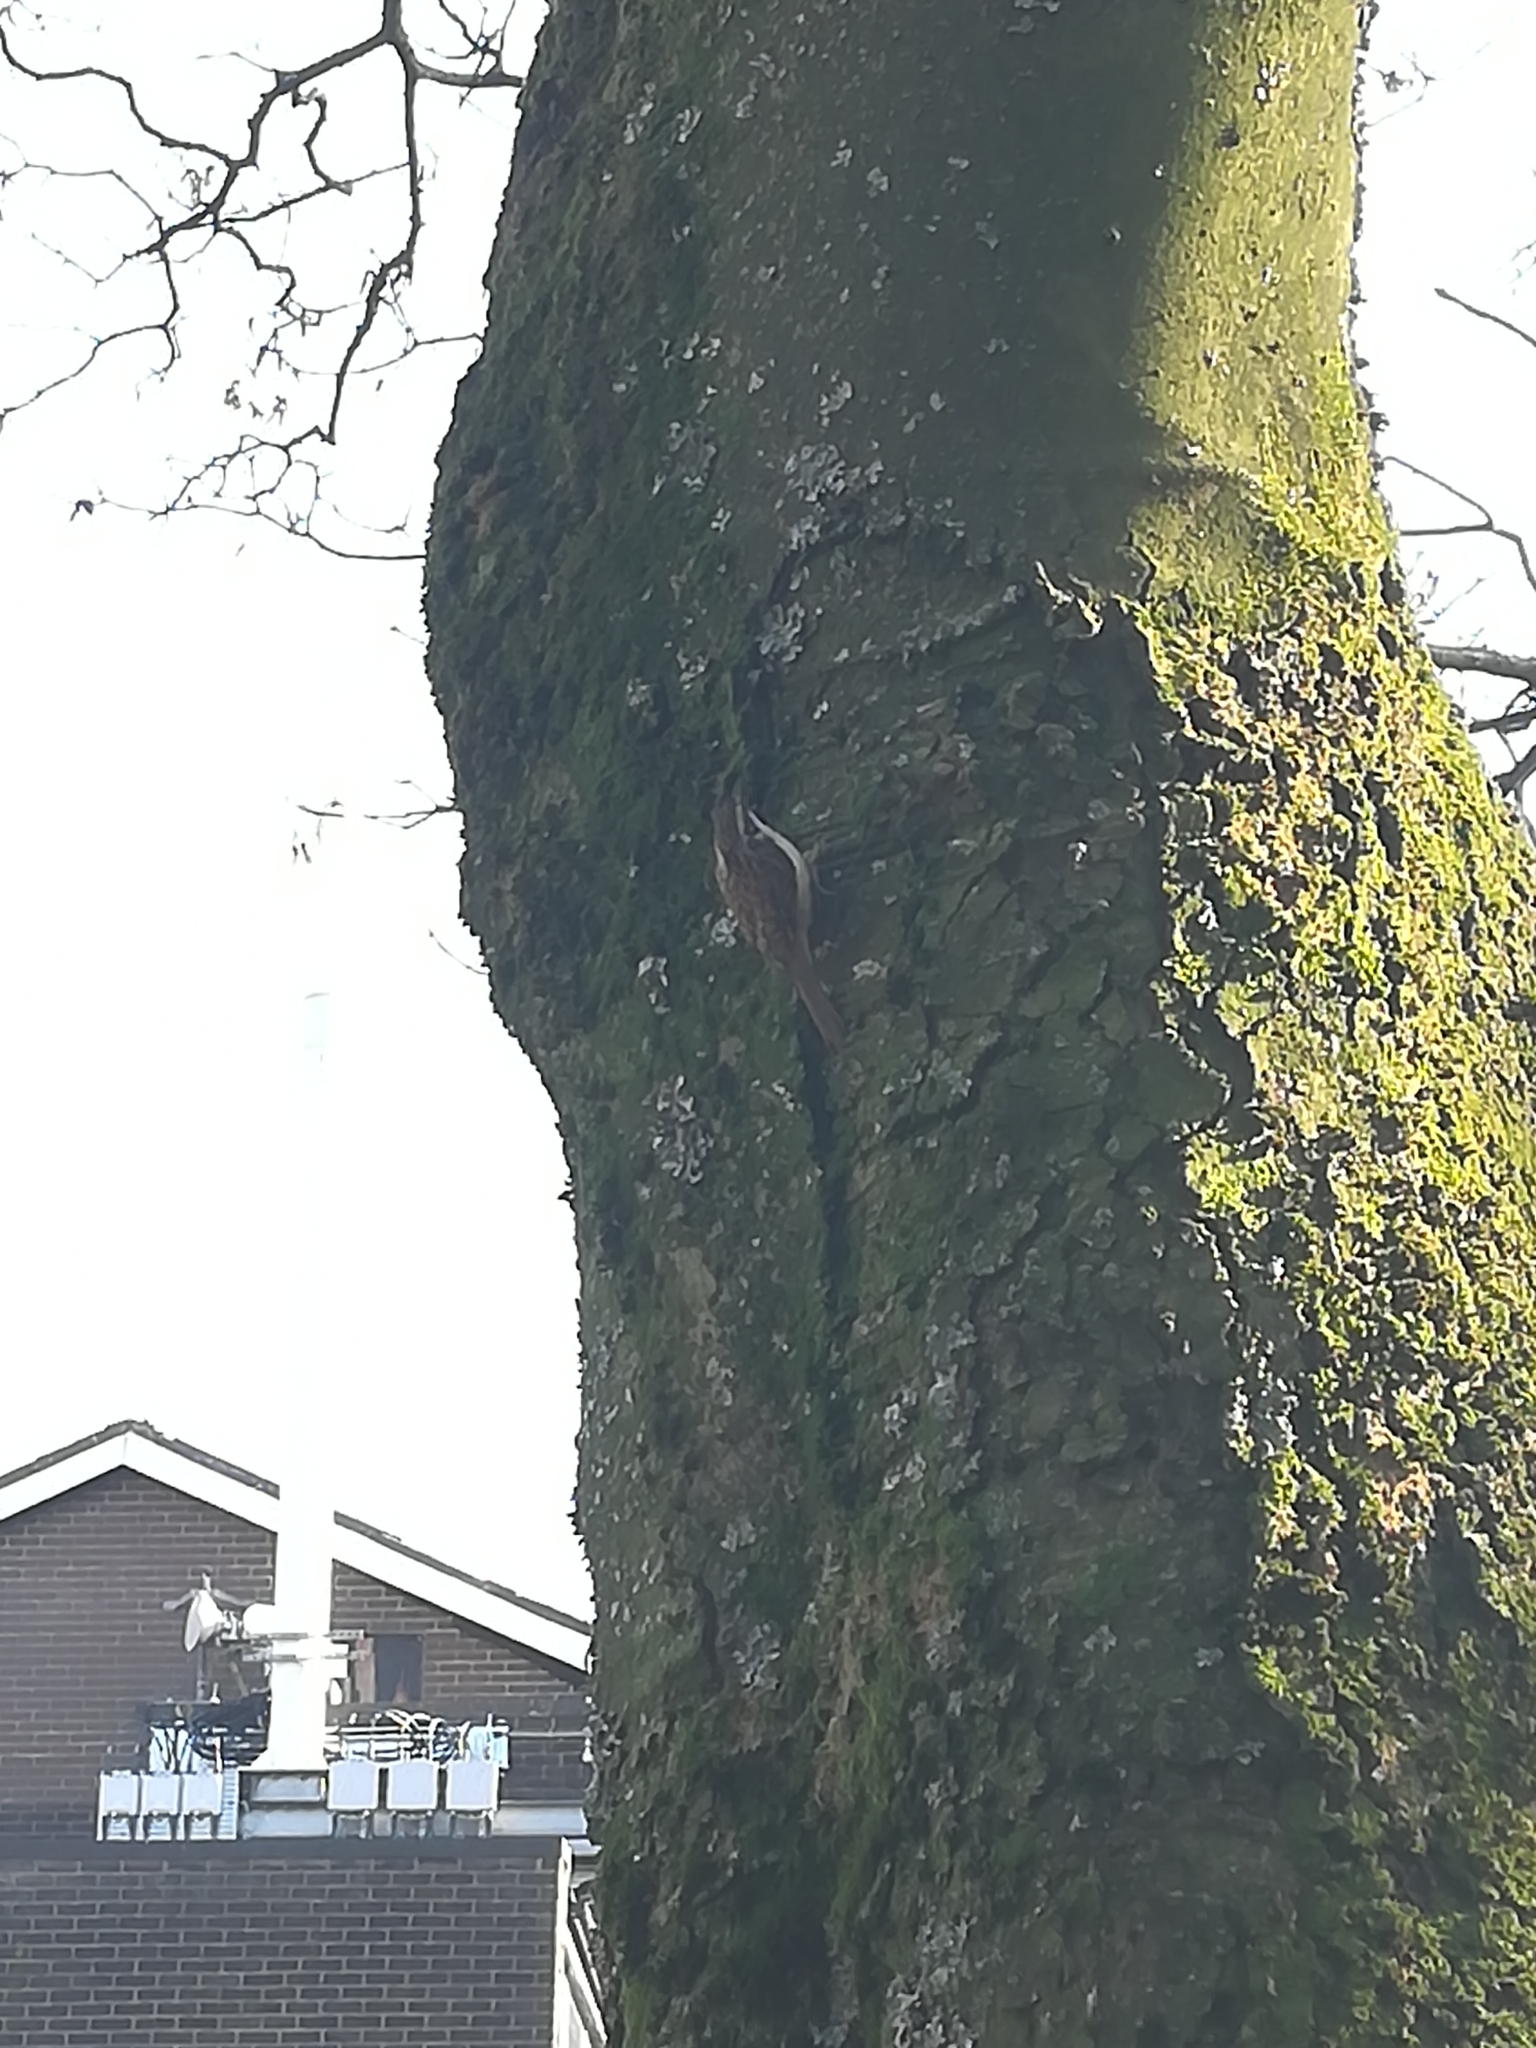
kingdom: Animalia
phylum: Chordata
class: Aves
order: Passeriformes
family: Certhiidae
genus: Certhia
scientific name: Certhia familiaris
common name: Eurasian treecreeper
